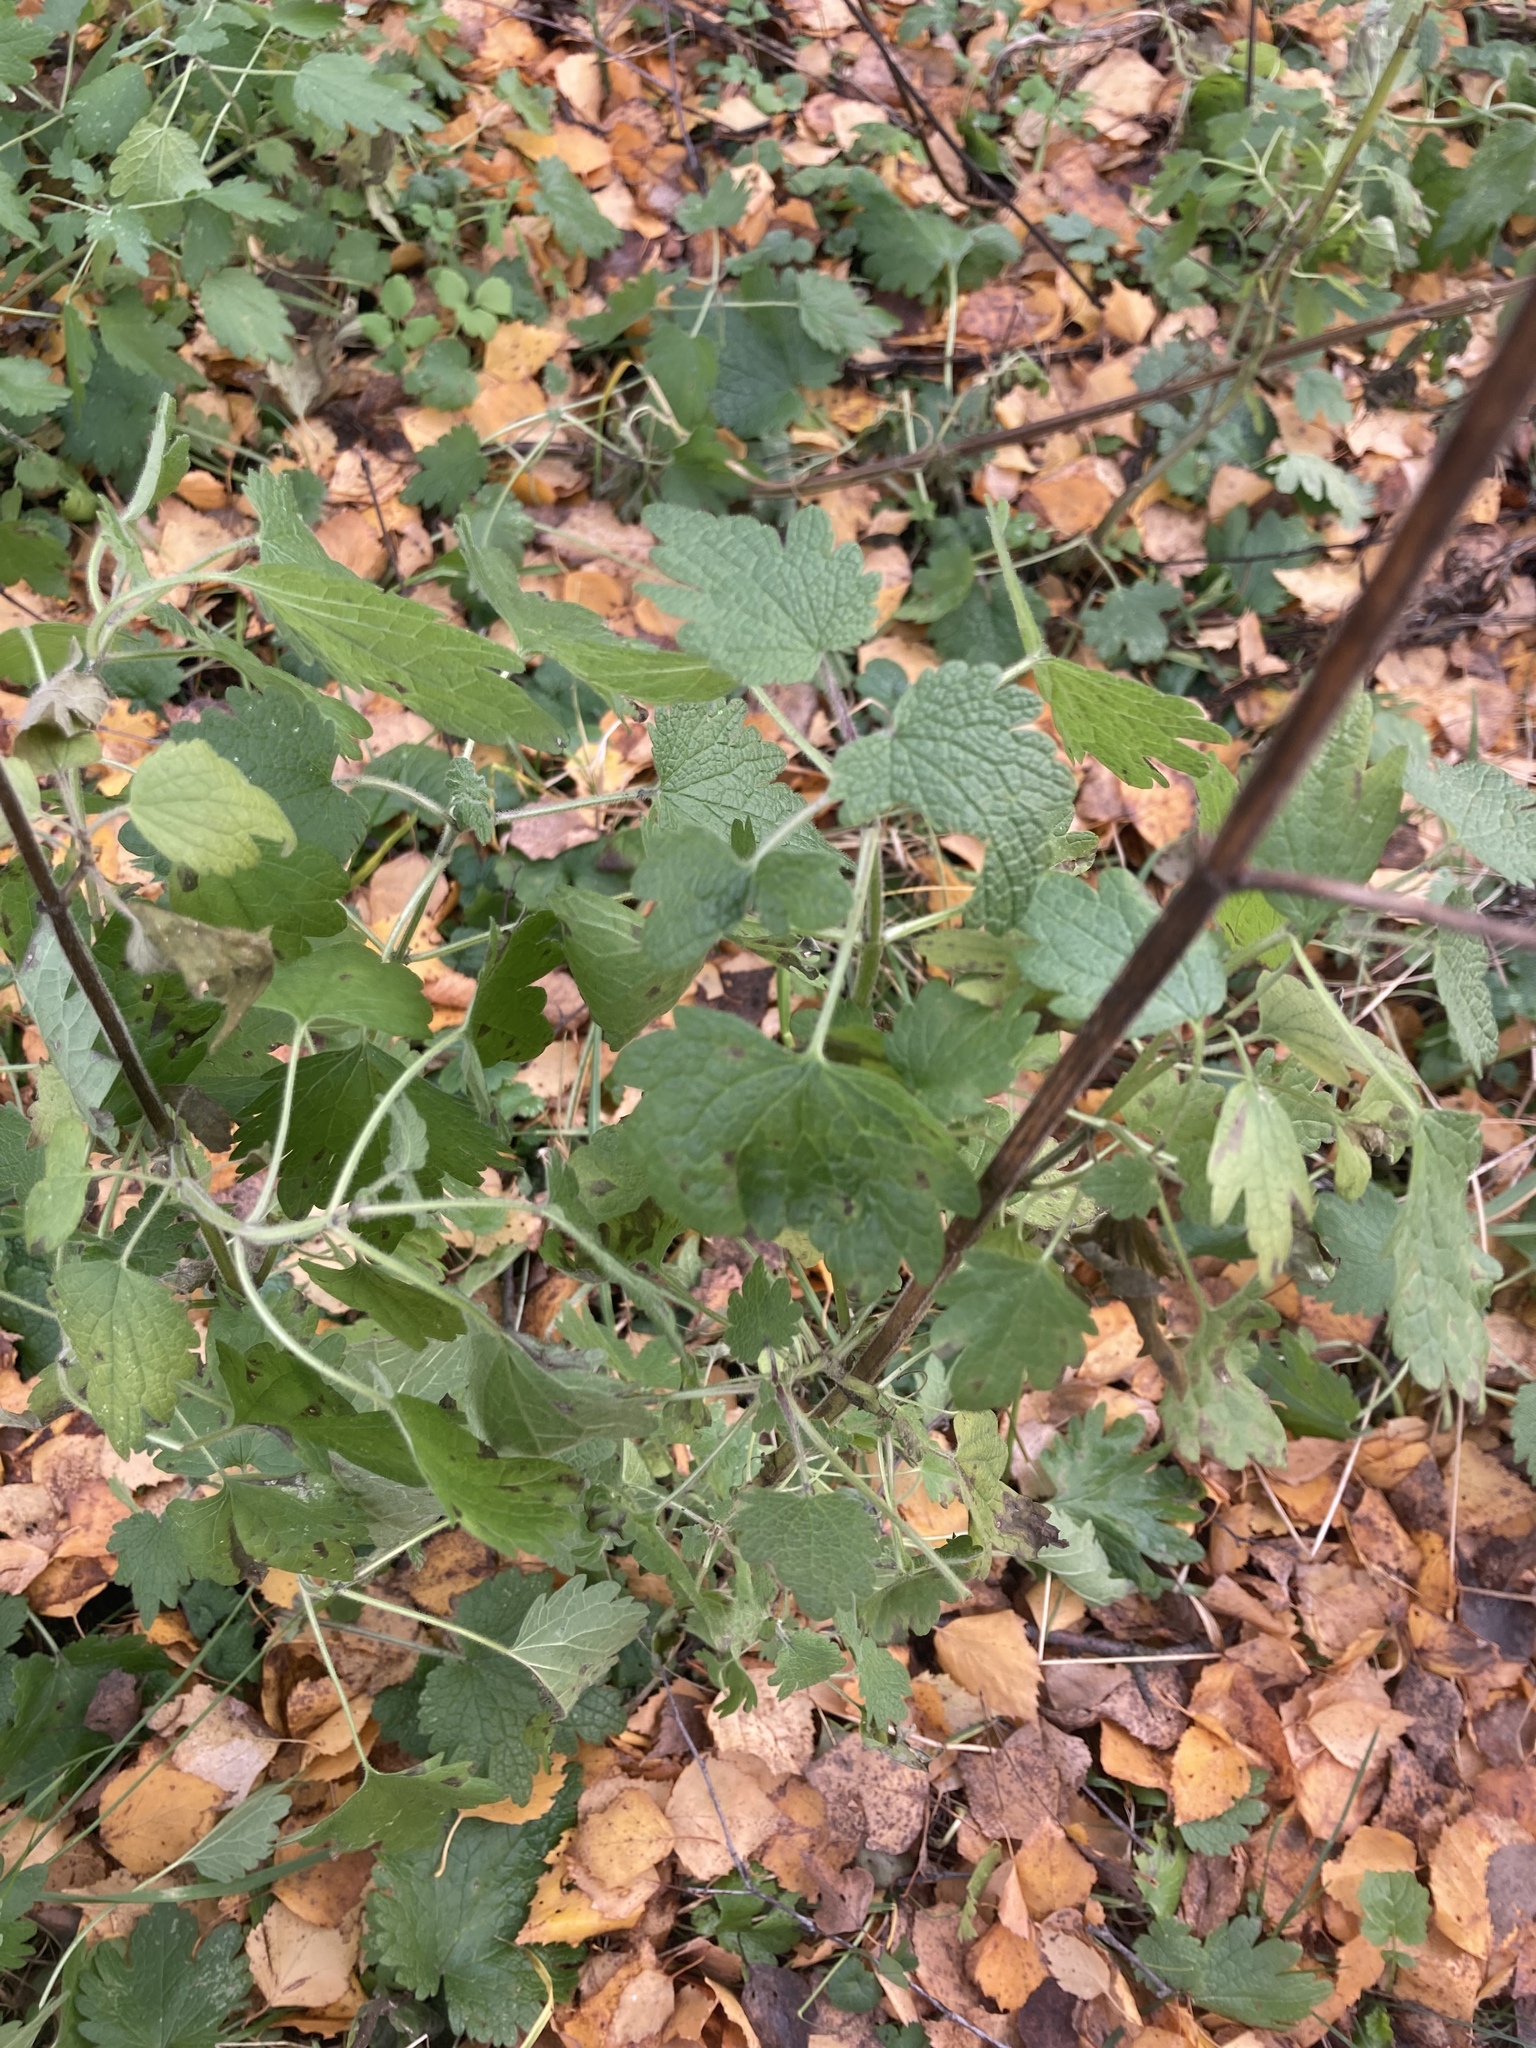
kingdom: Plantae
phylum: Tracheophyta
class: Magnoliopsida
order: Lamiales
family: Lamiaceae
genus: Leonurus
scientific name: Leonurus quinquelobatus
